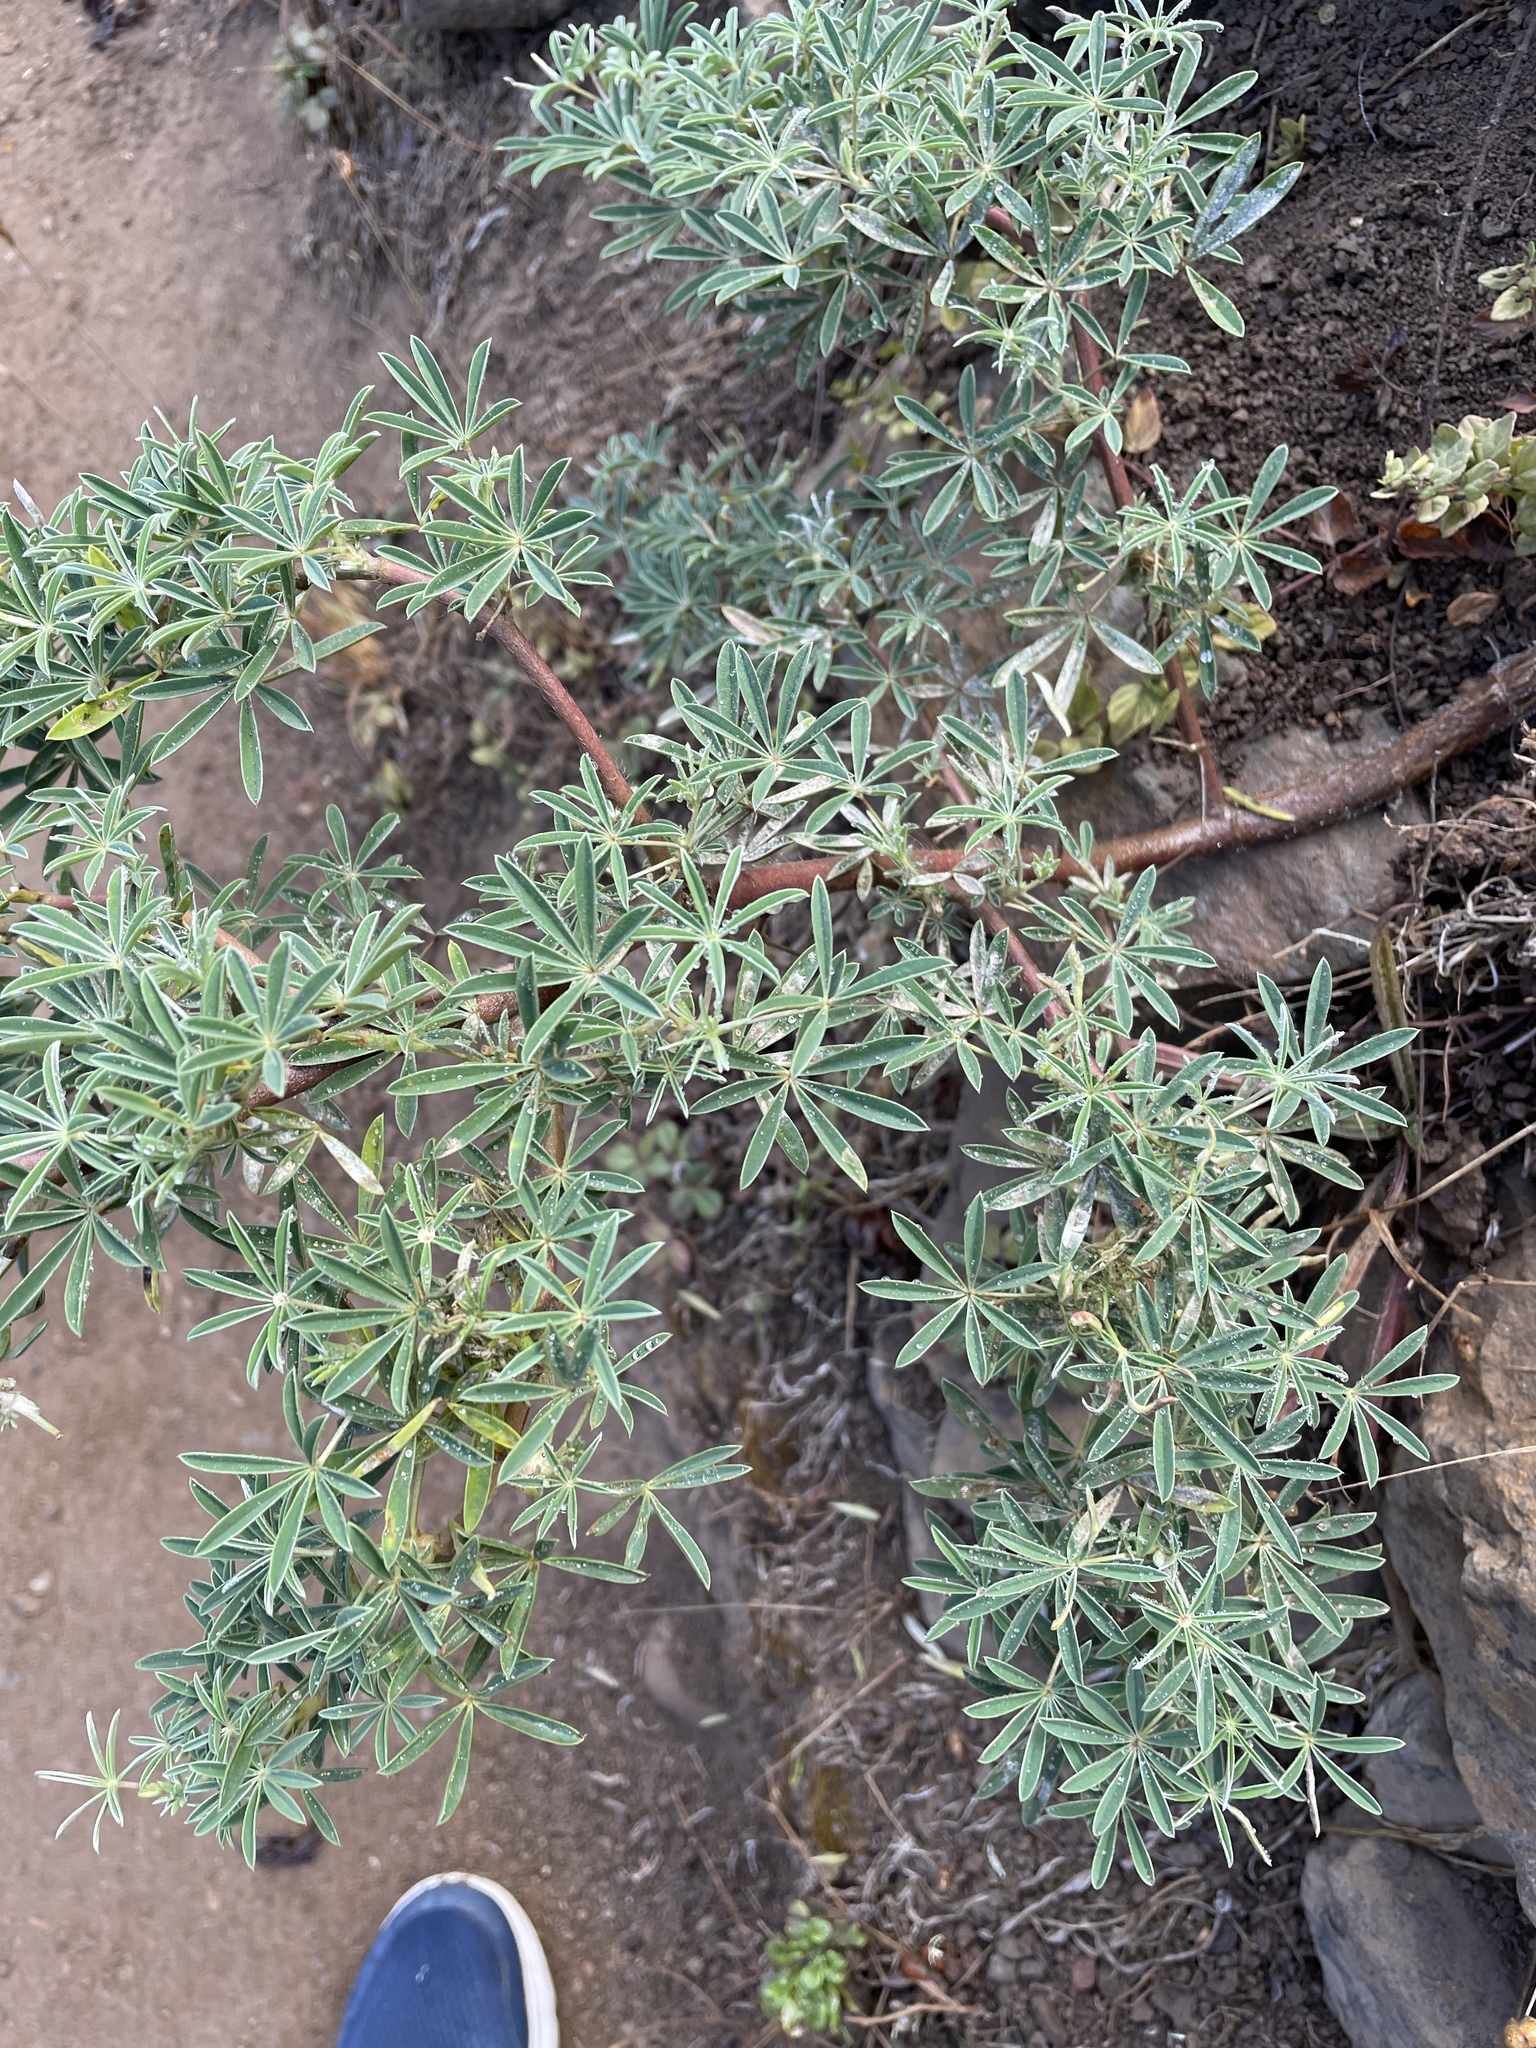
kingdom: Plantae
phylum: Tracheophyta
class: Magnoliopsida
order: Fabales
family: Fabaceae
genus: Lupinus
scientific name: Lupinus arboreus
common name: Yellow bush lupine
